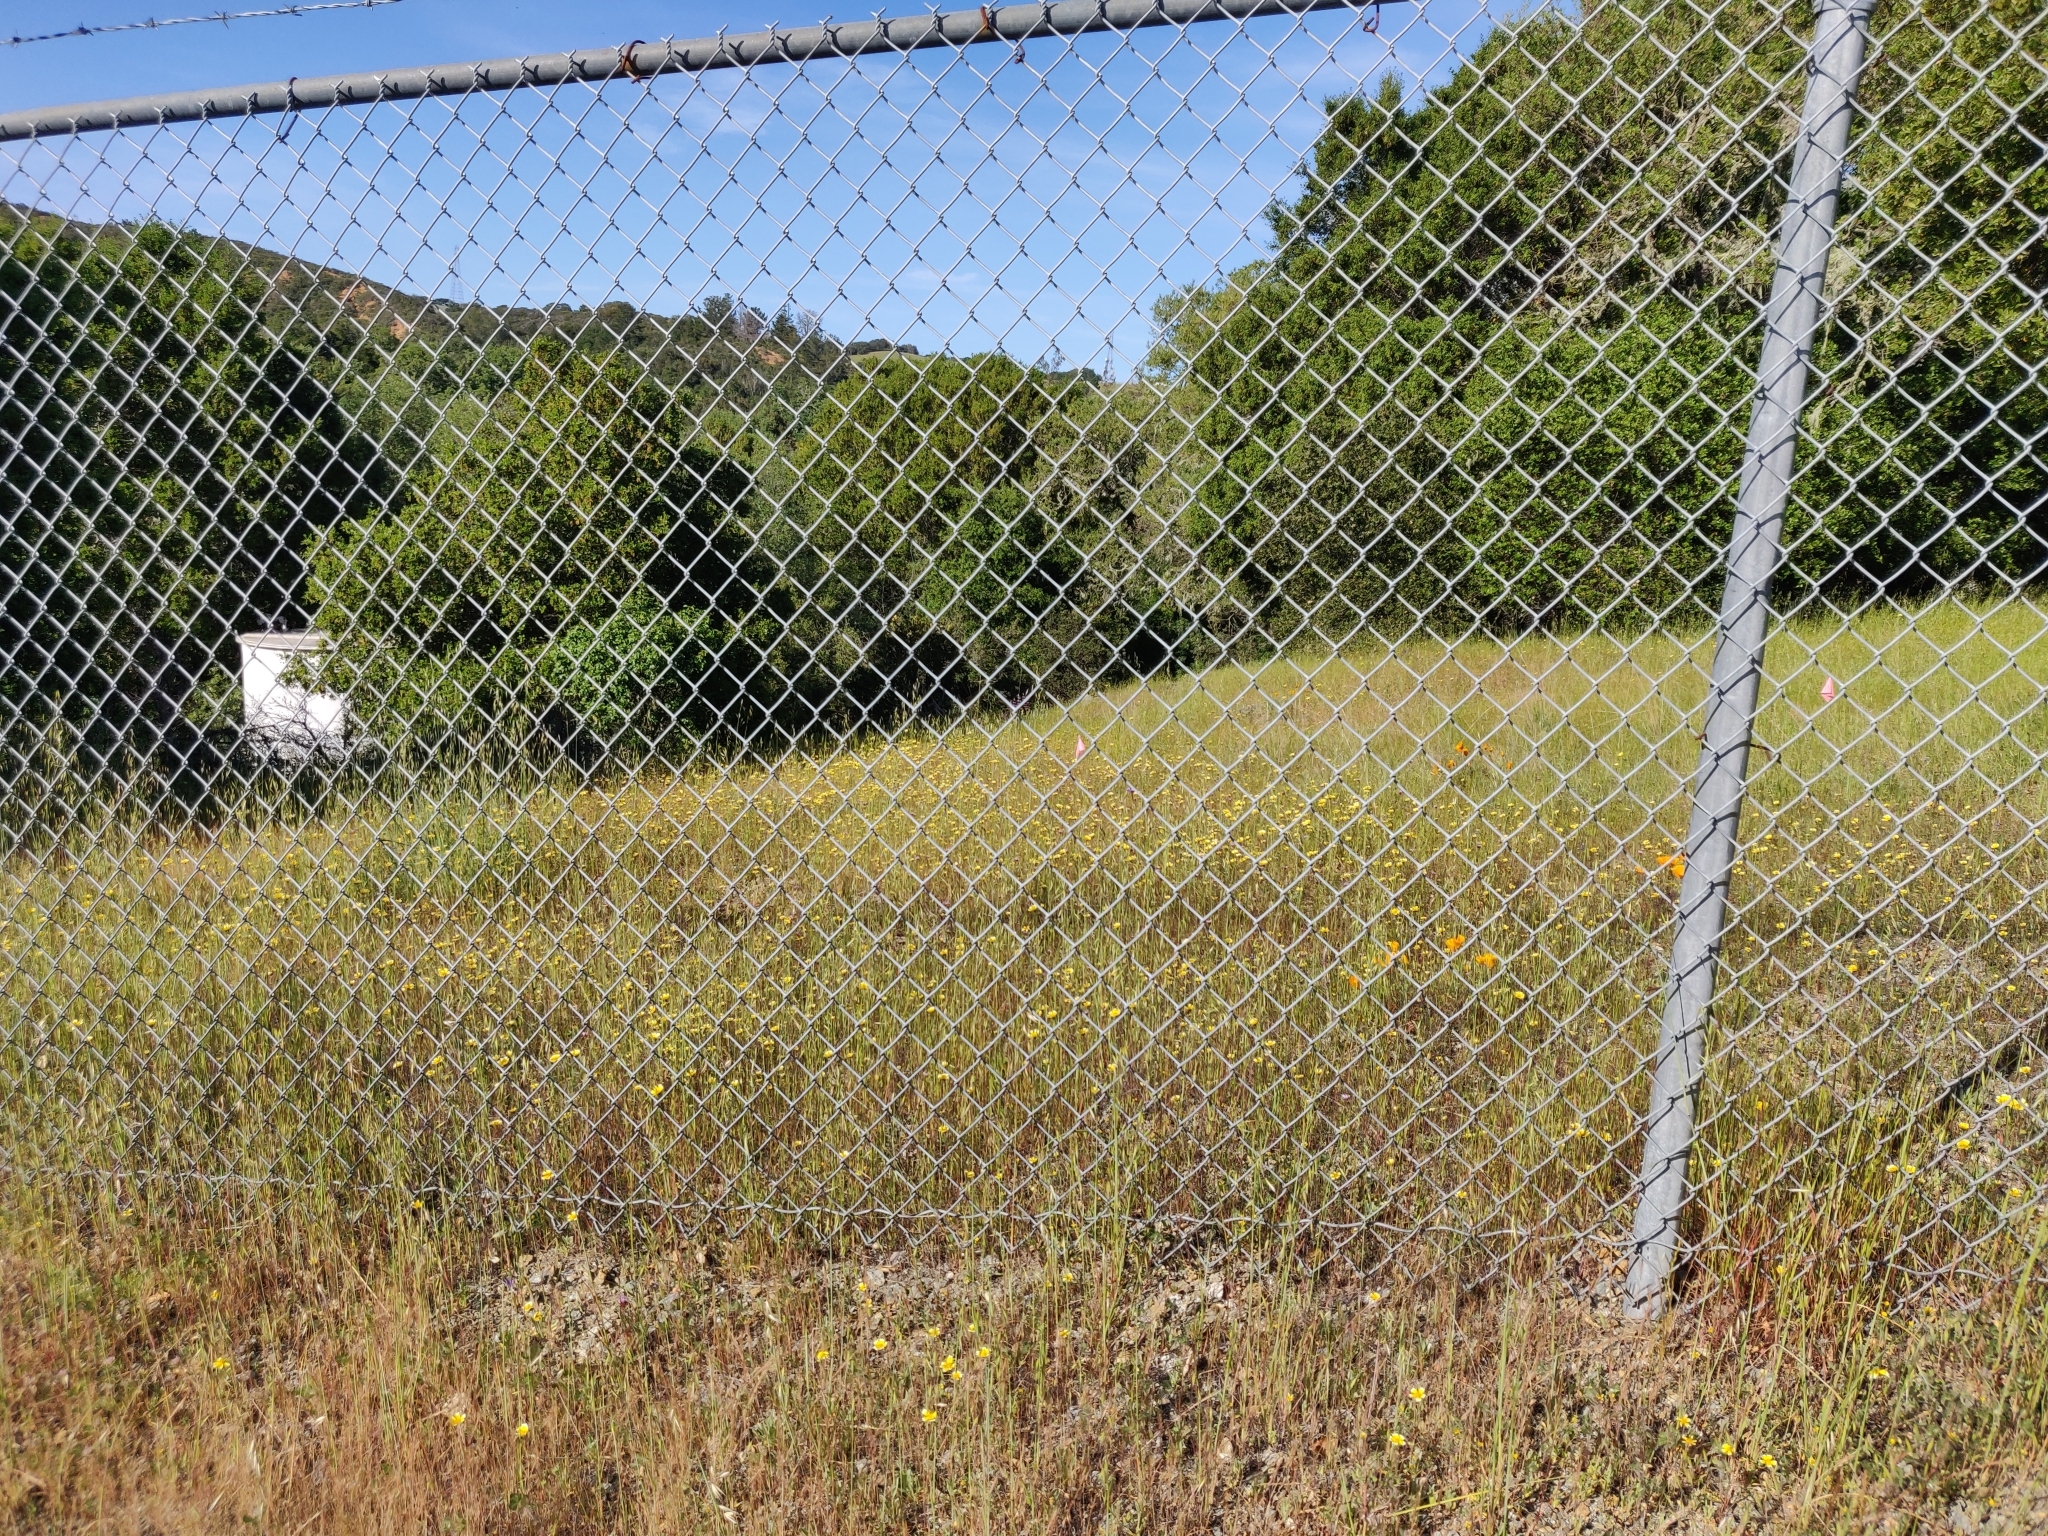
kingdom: Plantae
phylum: Tracheophyta
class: Magnoliopsida
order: Asterales
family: Asteraceae
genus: Layia
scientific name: Layia platyglossa
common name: Tidy-tips
